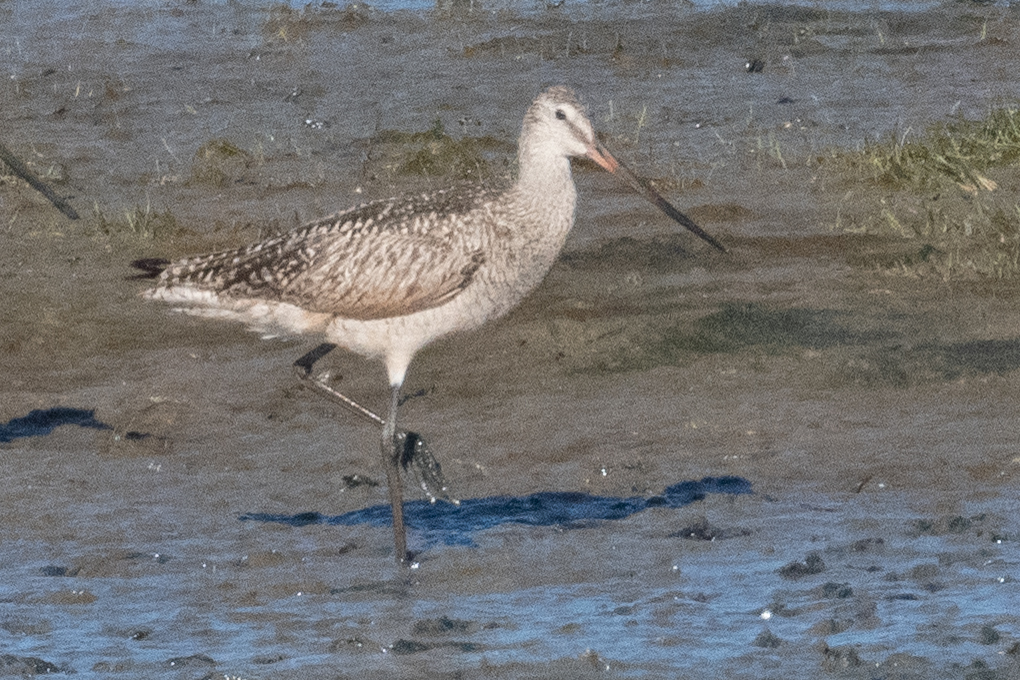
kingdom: Animalia
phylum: Chordata
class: Aves
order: Charadriiformes
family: Scolopacidae
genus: Limosa
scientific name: Limosa fedoa
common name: Marbled godwit
